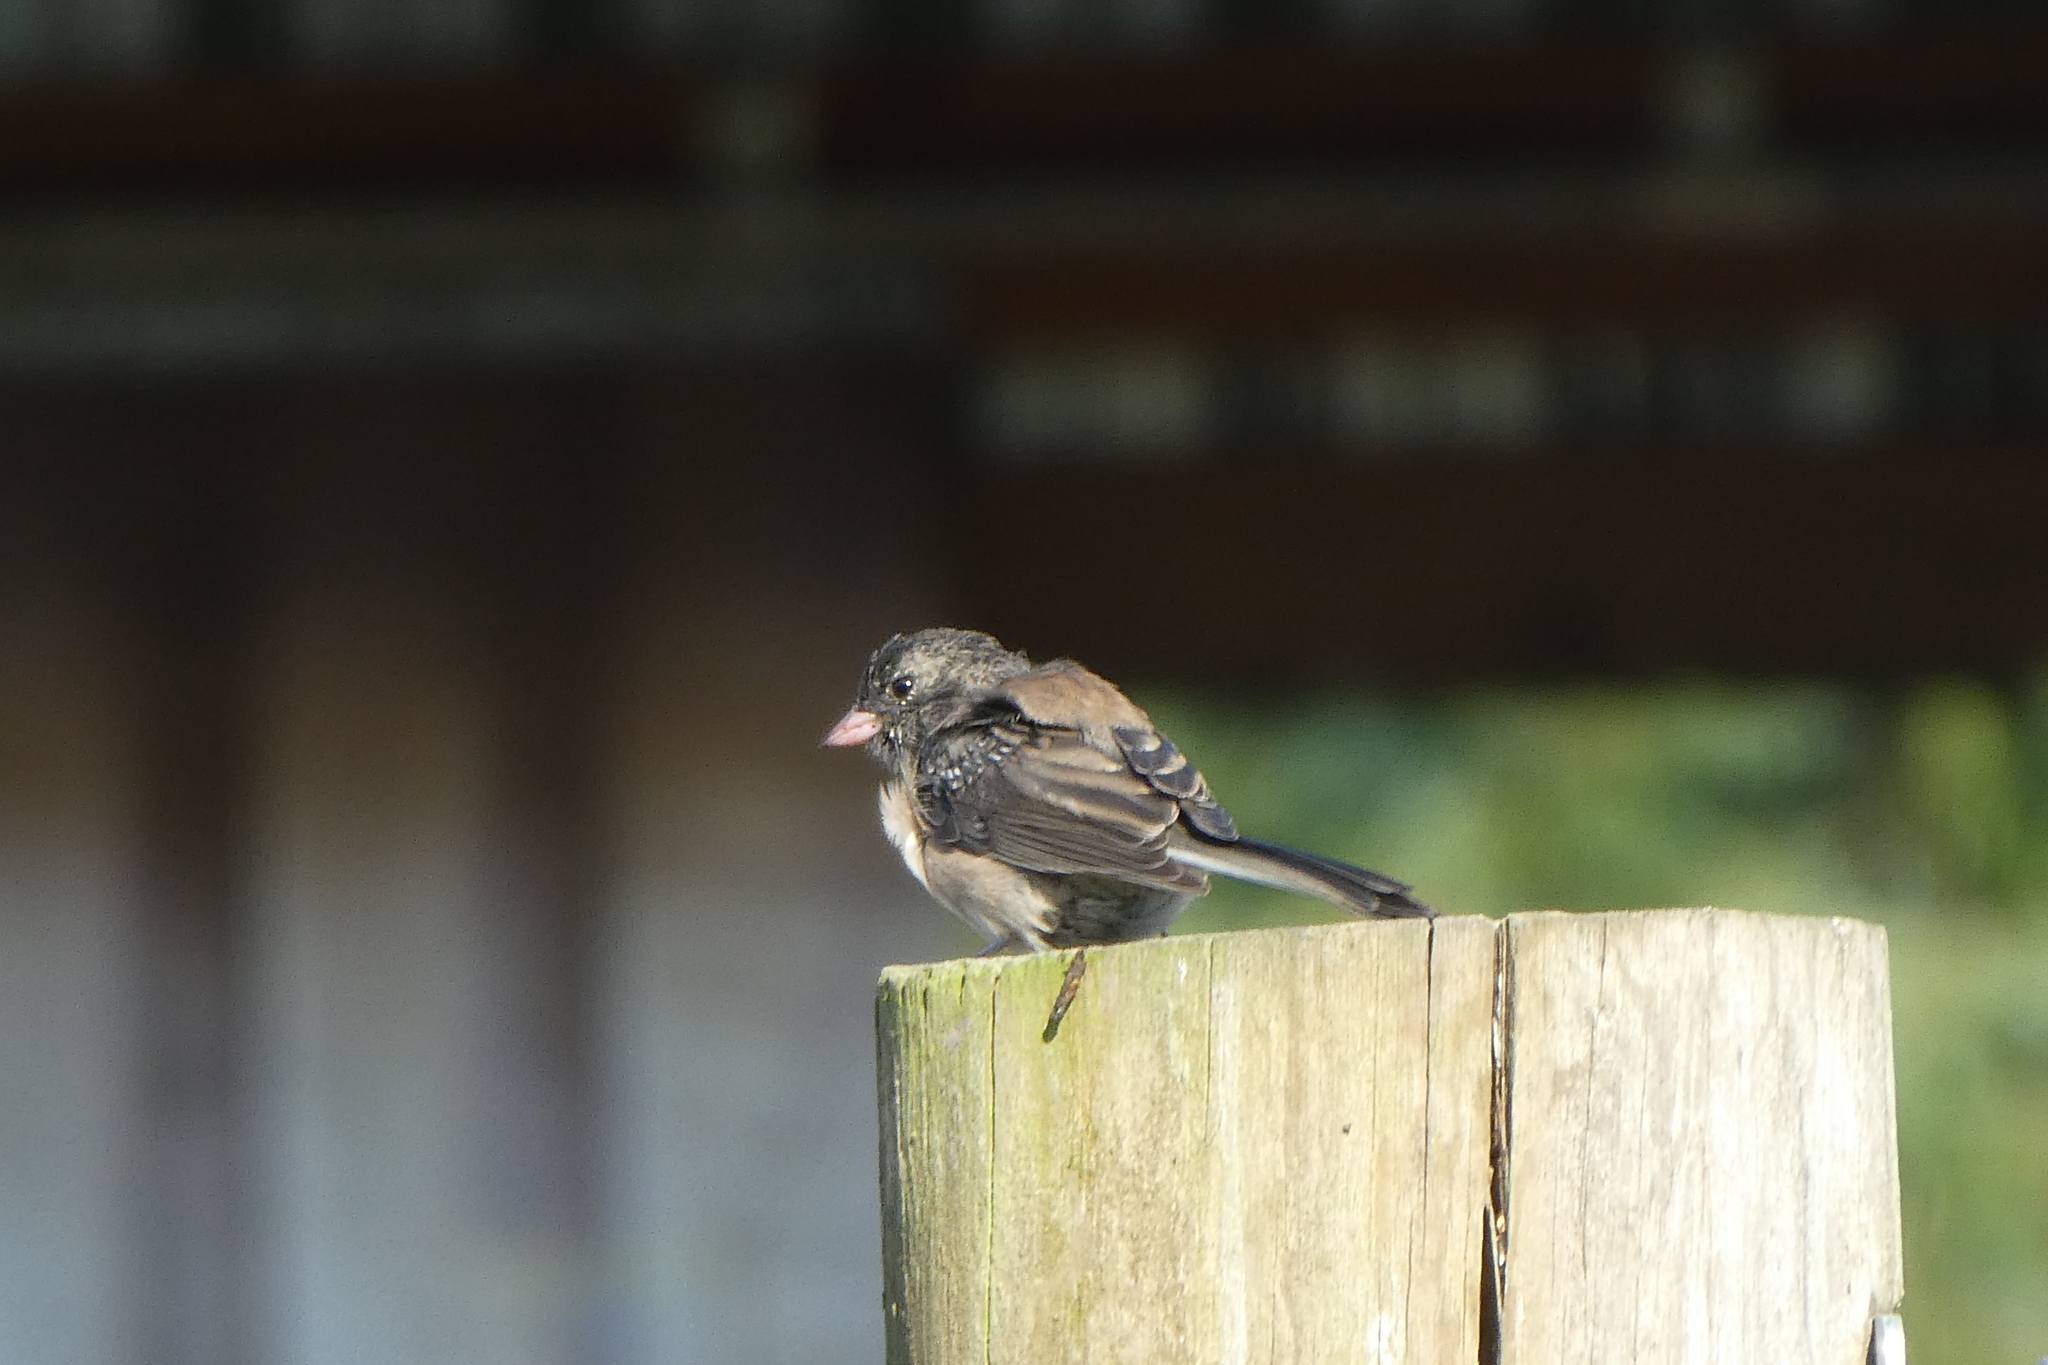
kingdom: Animalia
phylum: Chordata
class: Aves
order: Passeriformes
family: Passerellidae
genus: Junco
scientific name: Junco hyemalis
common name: Dark-eyed junco
